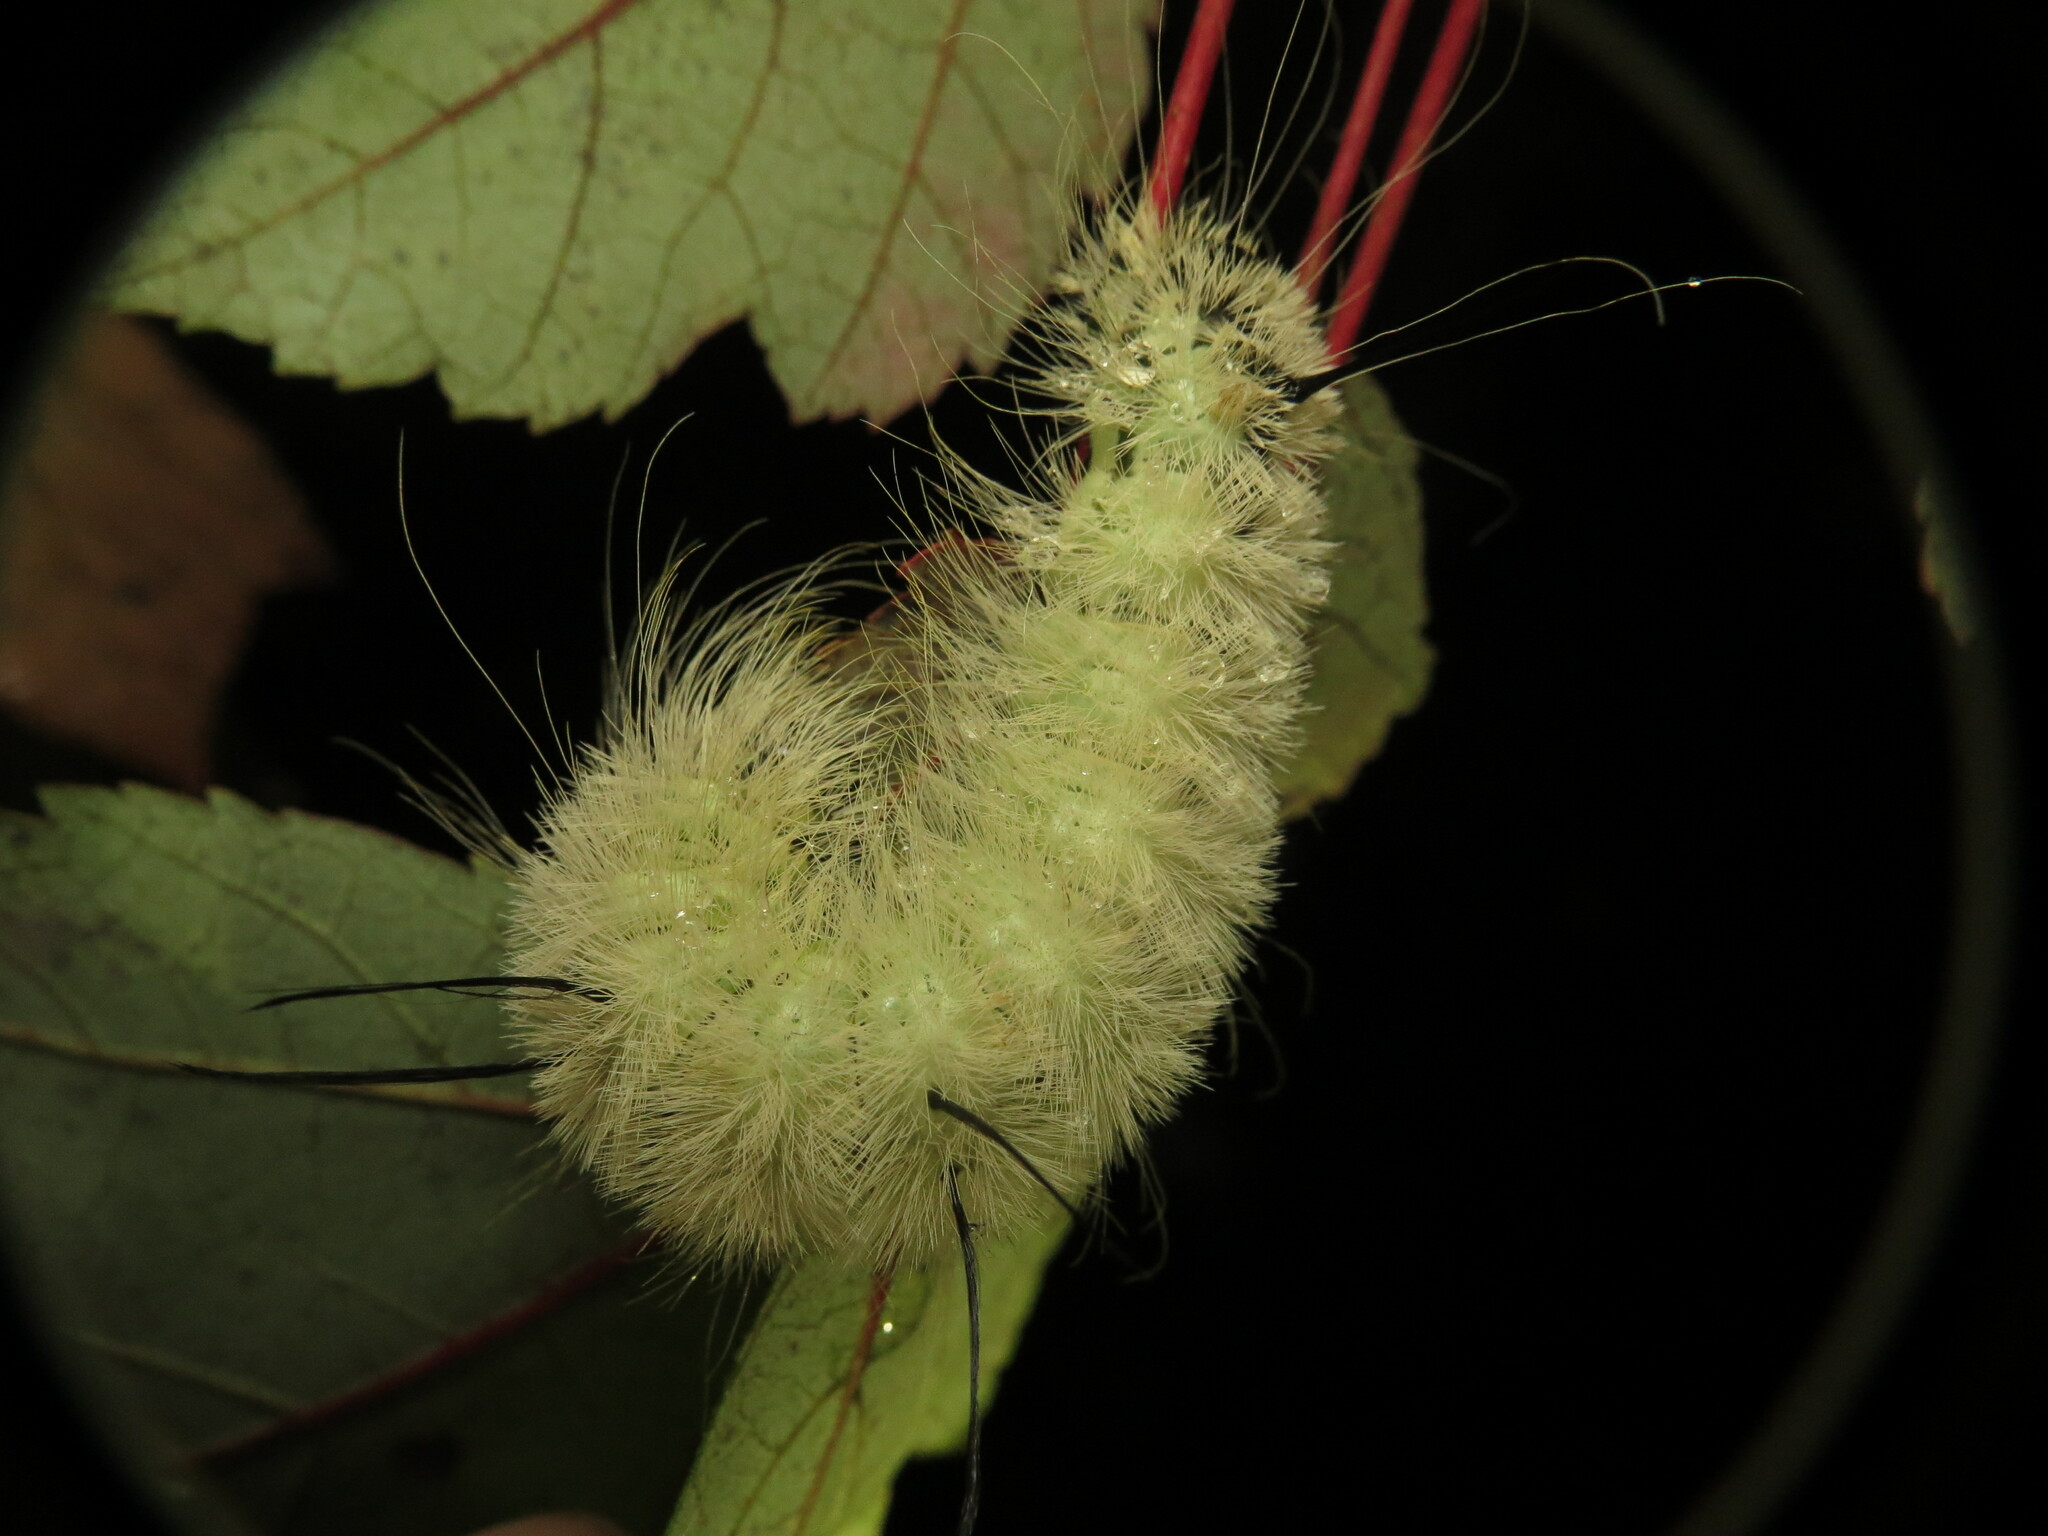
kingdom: Animalia
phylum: Arthropoda
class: Insecta
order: Lepidoptera
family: Noctuidae
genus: Acronicta
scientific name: Acronicta americana
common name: American dagger
